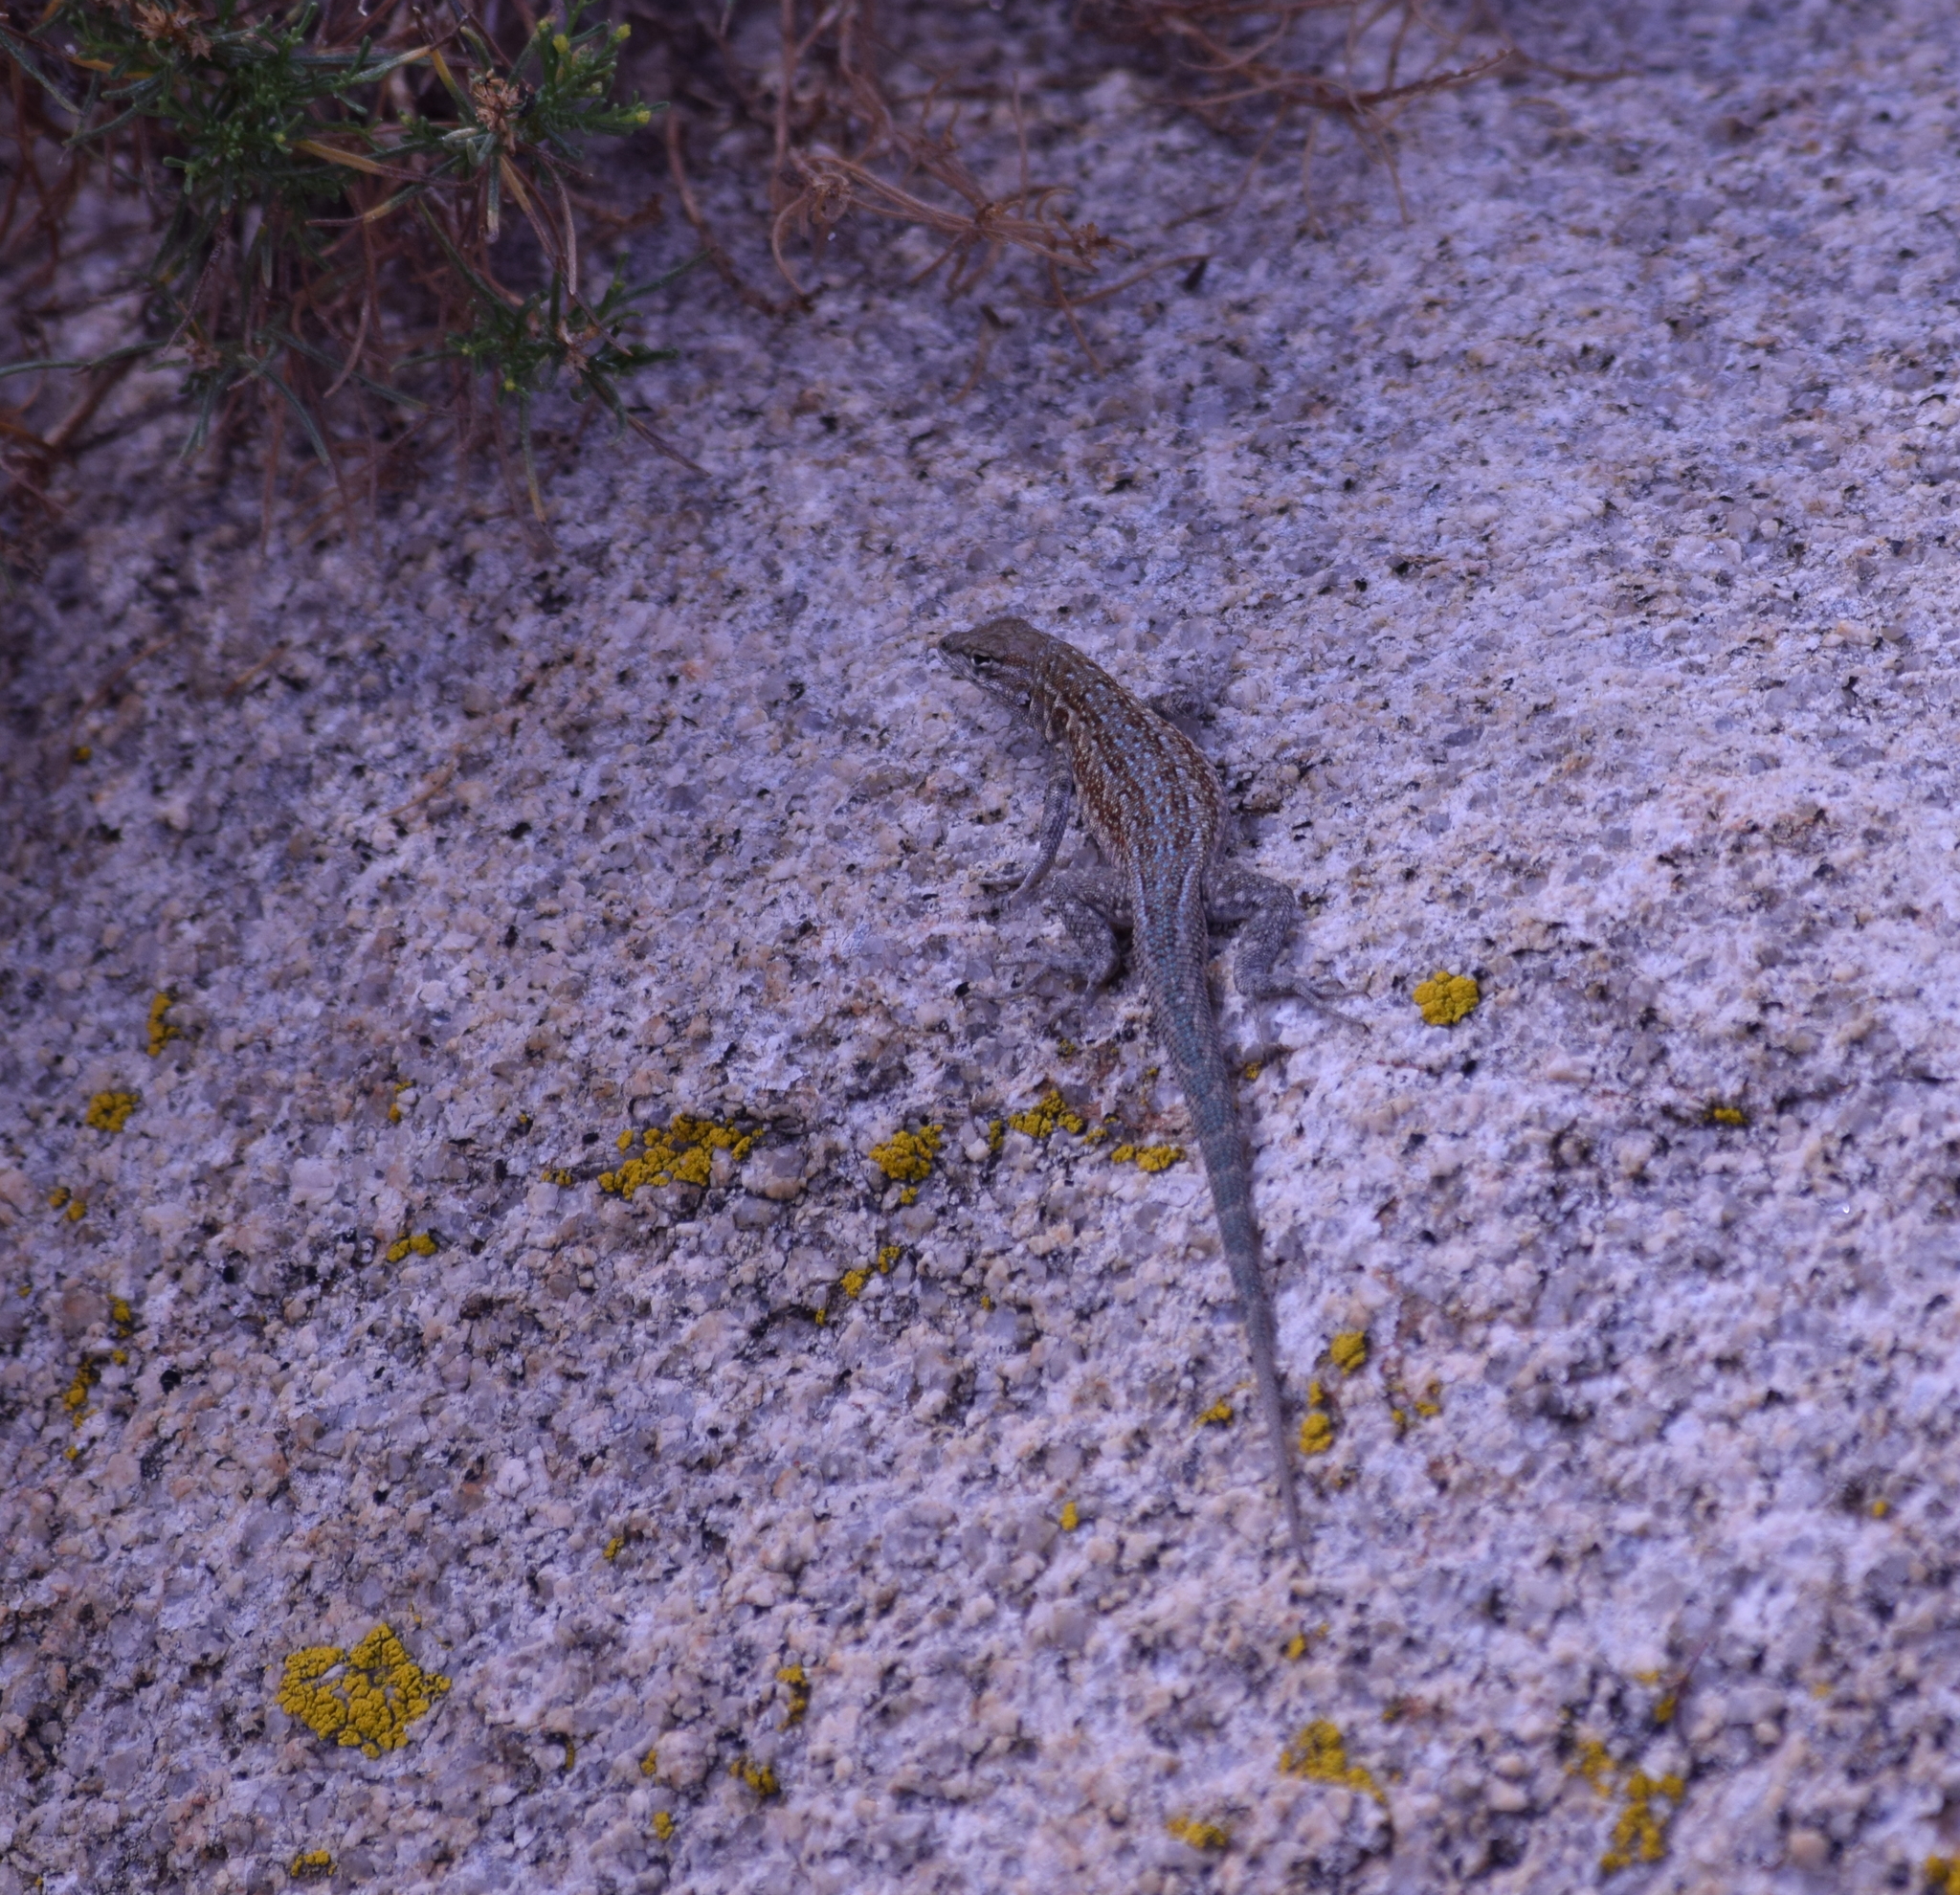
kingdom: Animalia
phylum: Chordata
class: Squamata
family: Phrynosomatidae
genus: Uta
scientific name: Uta stansburiana
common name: Side-blotched lizard
